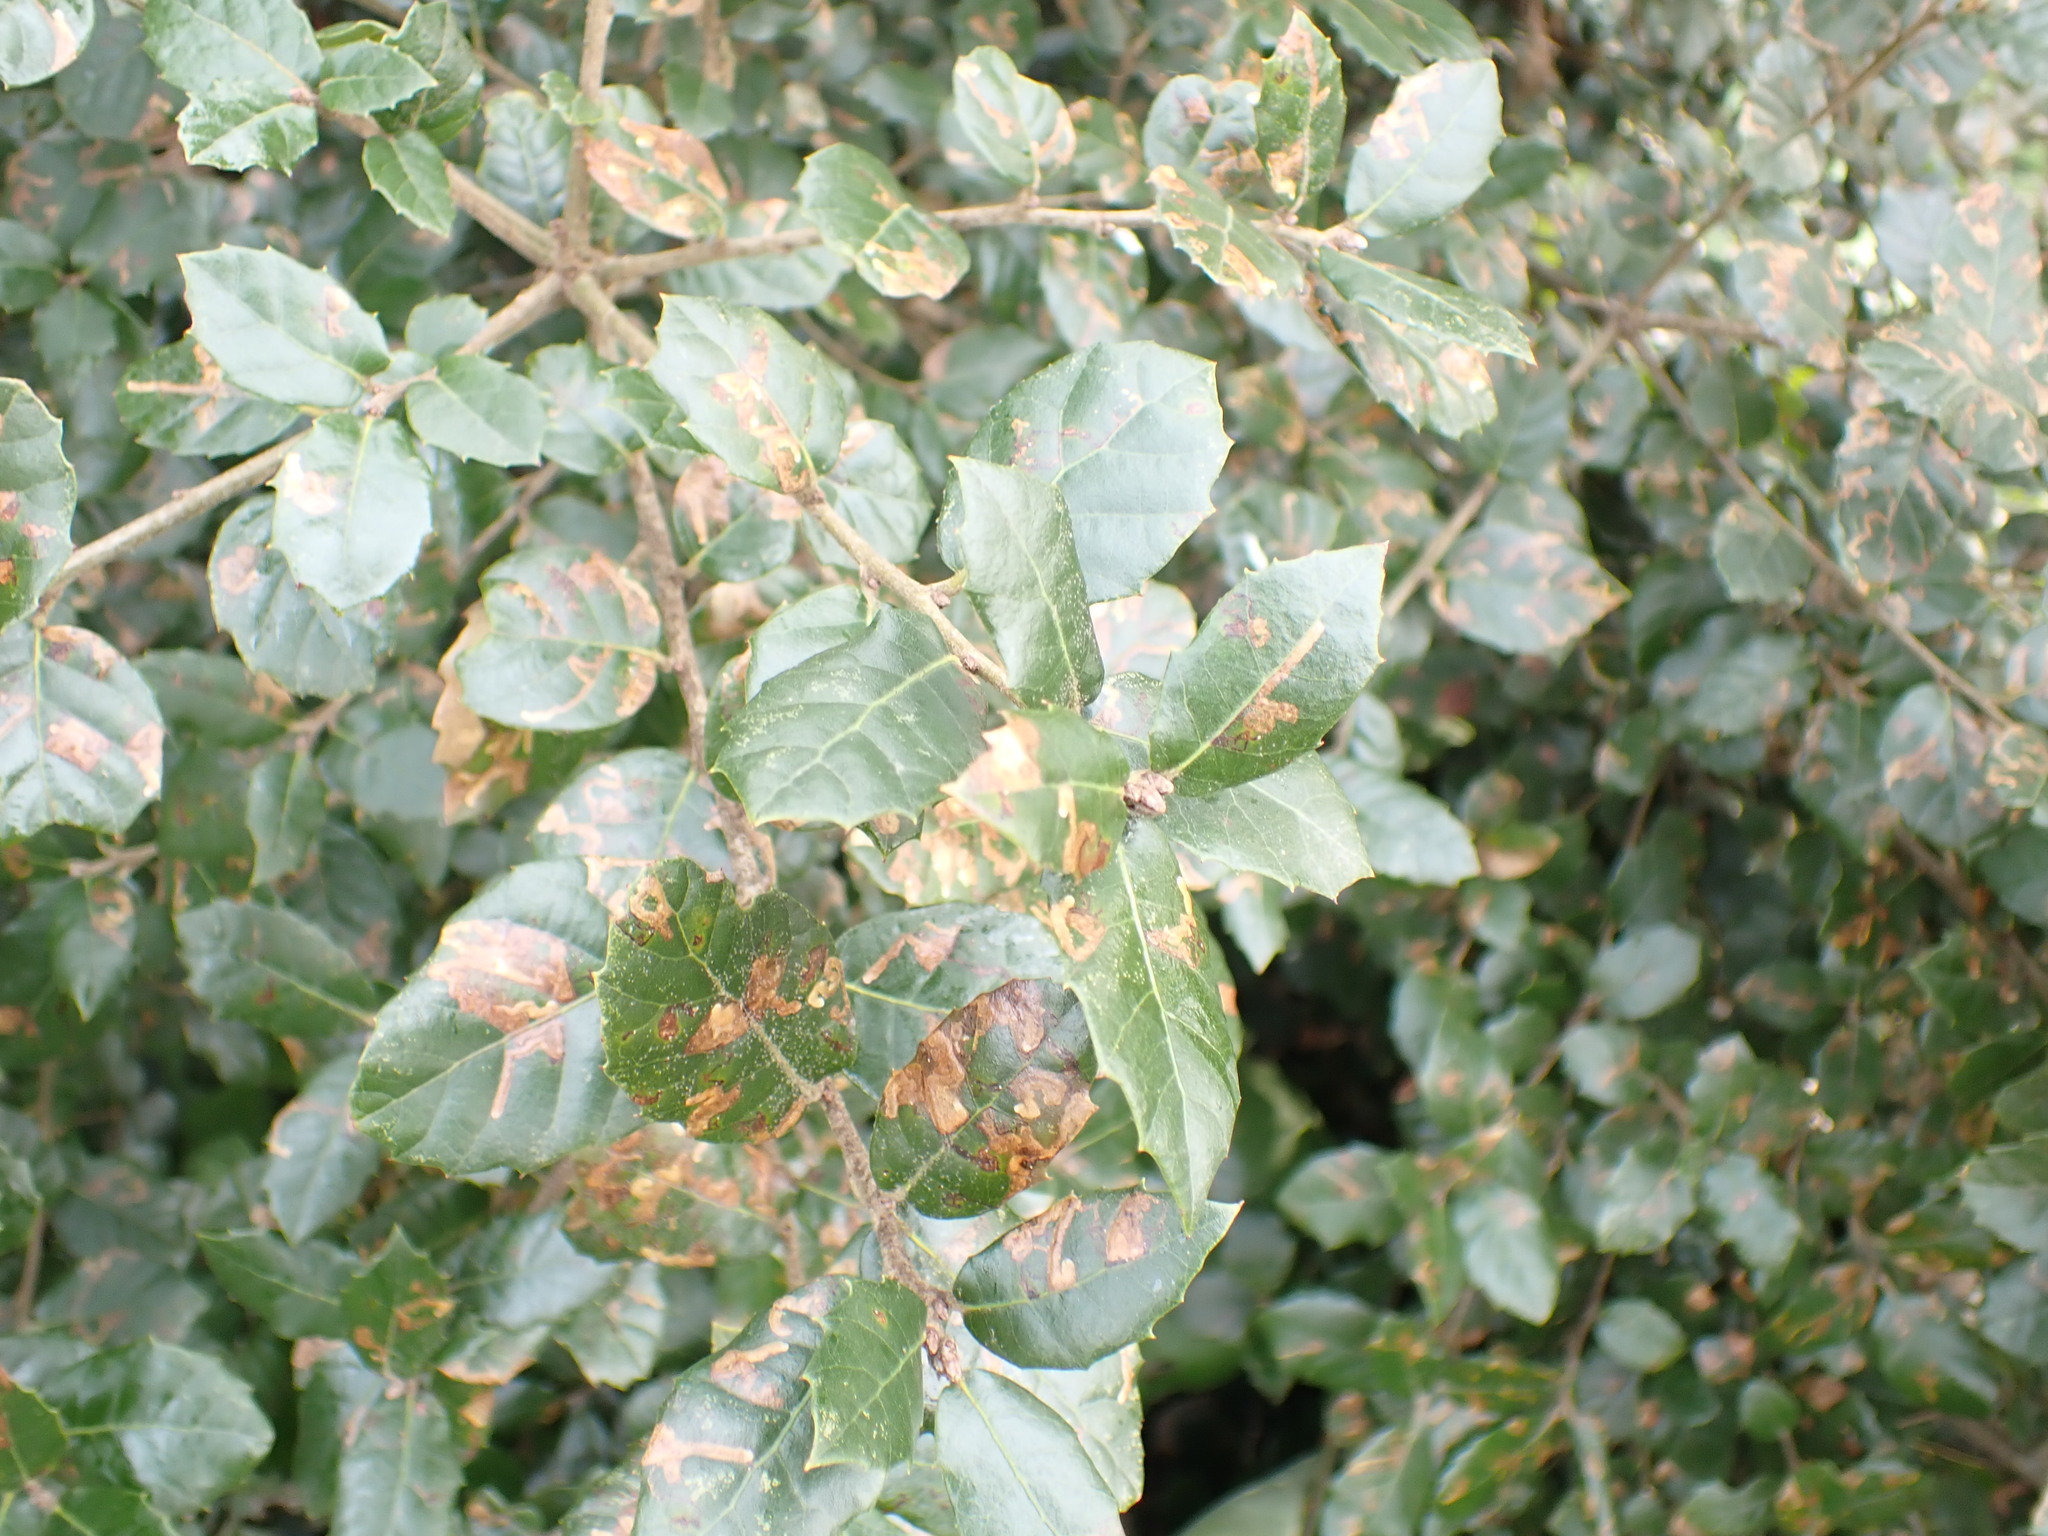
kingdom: Plantae
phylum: Tracheophyta
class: Magnoliopsida
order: Fagales
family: Fagaceae
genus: Quercus
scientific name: Quercus ilex
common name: Evergreen oak
